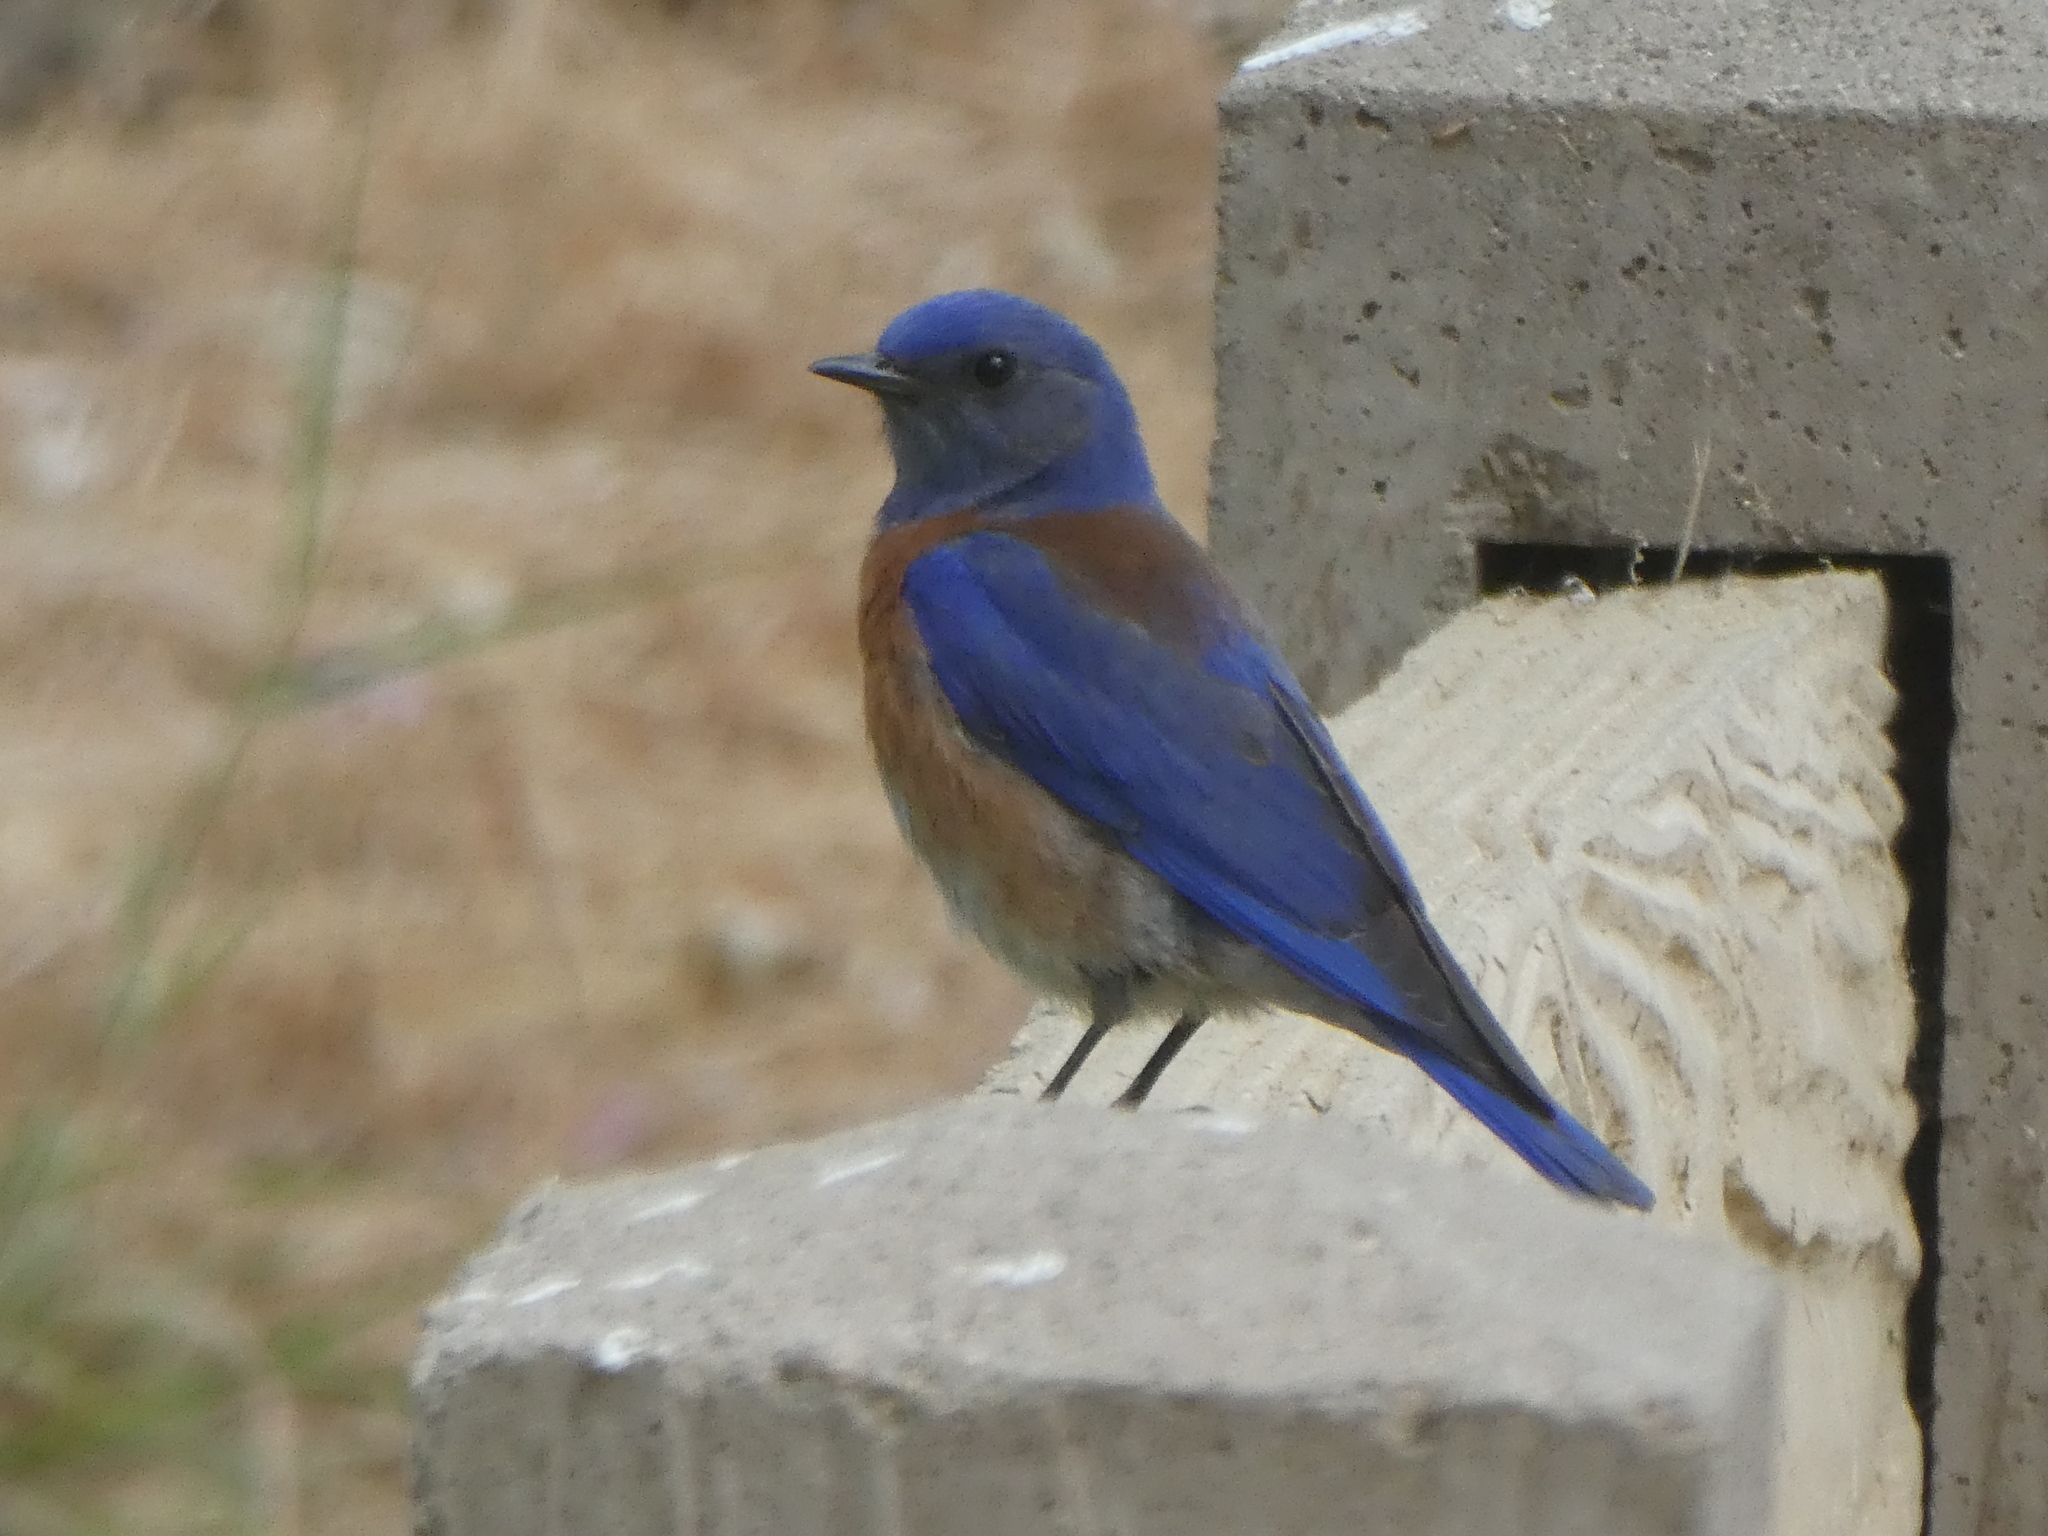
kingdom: Animalia
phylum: Chordata
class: Aves
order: Passeriformes
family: Turdidae
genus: Sialia
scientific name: Sialia mexicana
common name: Western bluebird
